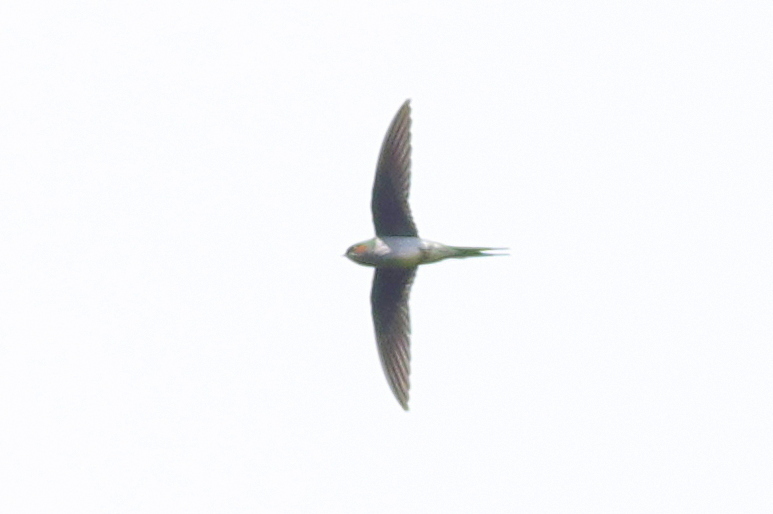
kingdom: Animalia
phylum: Chordata
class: Aves
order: Apodiformes
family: Hemiprocnidae
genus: Hemiprocne
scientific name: Hemiprocne longipennis
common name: Grey-rumped treeswift
